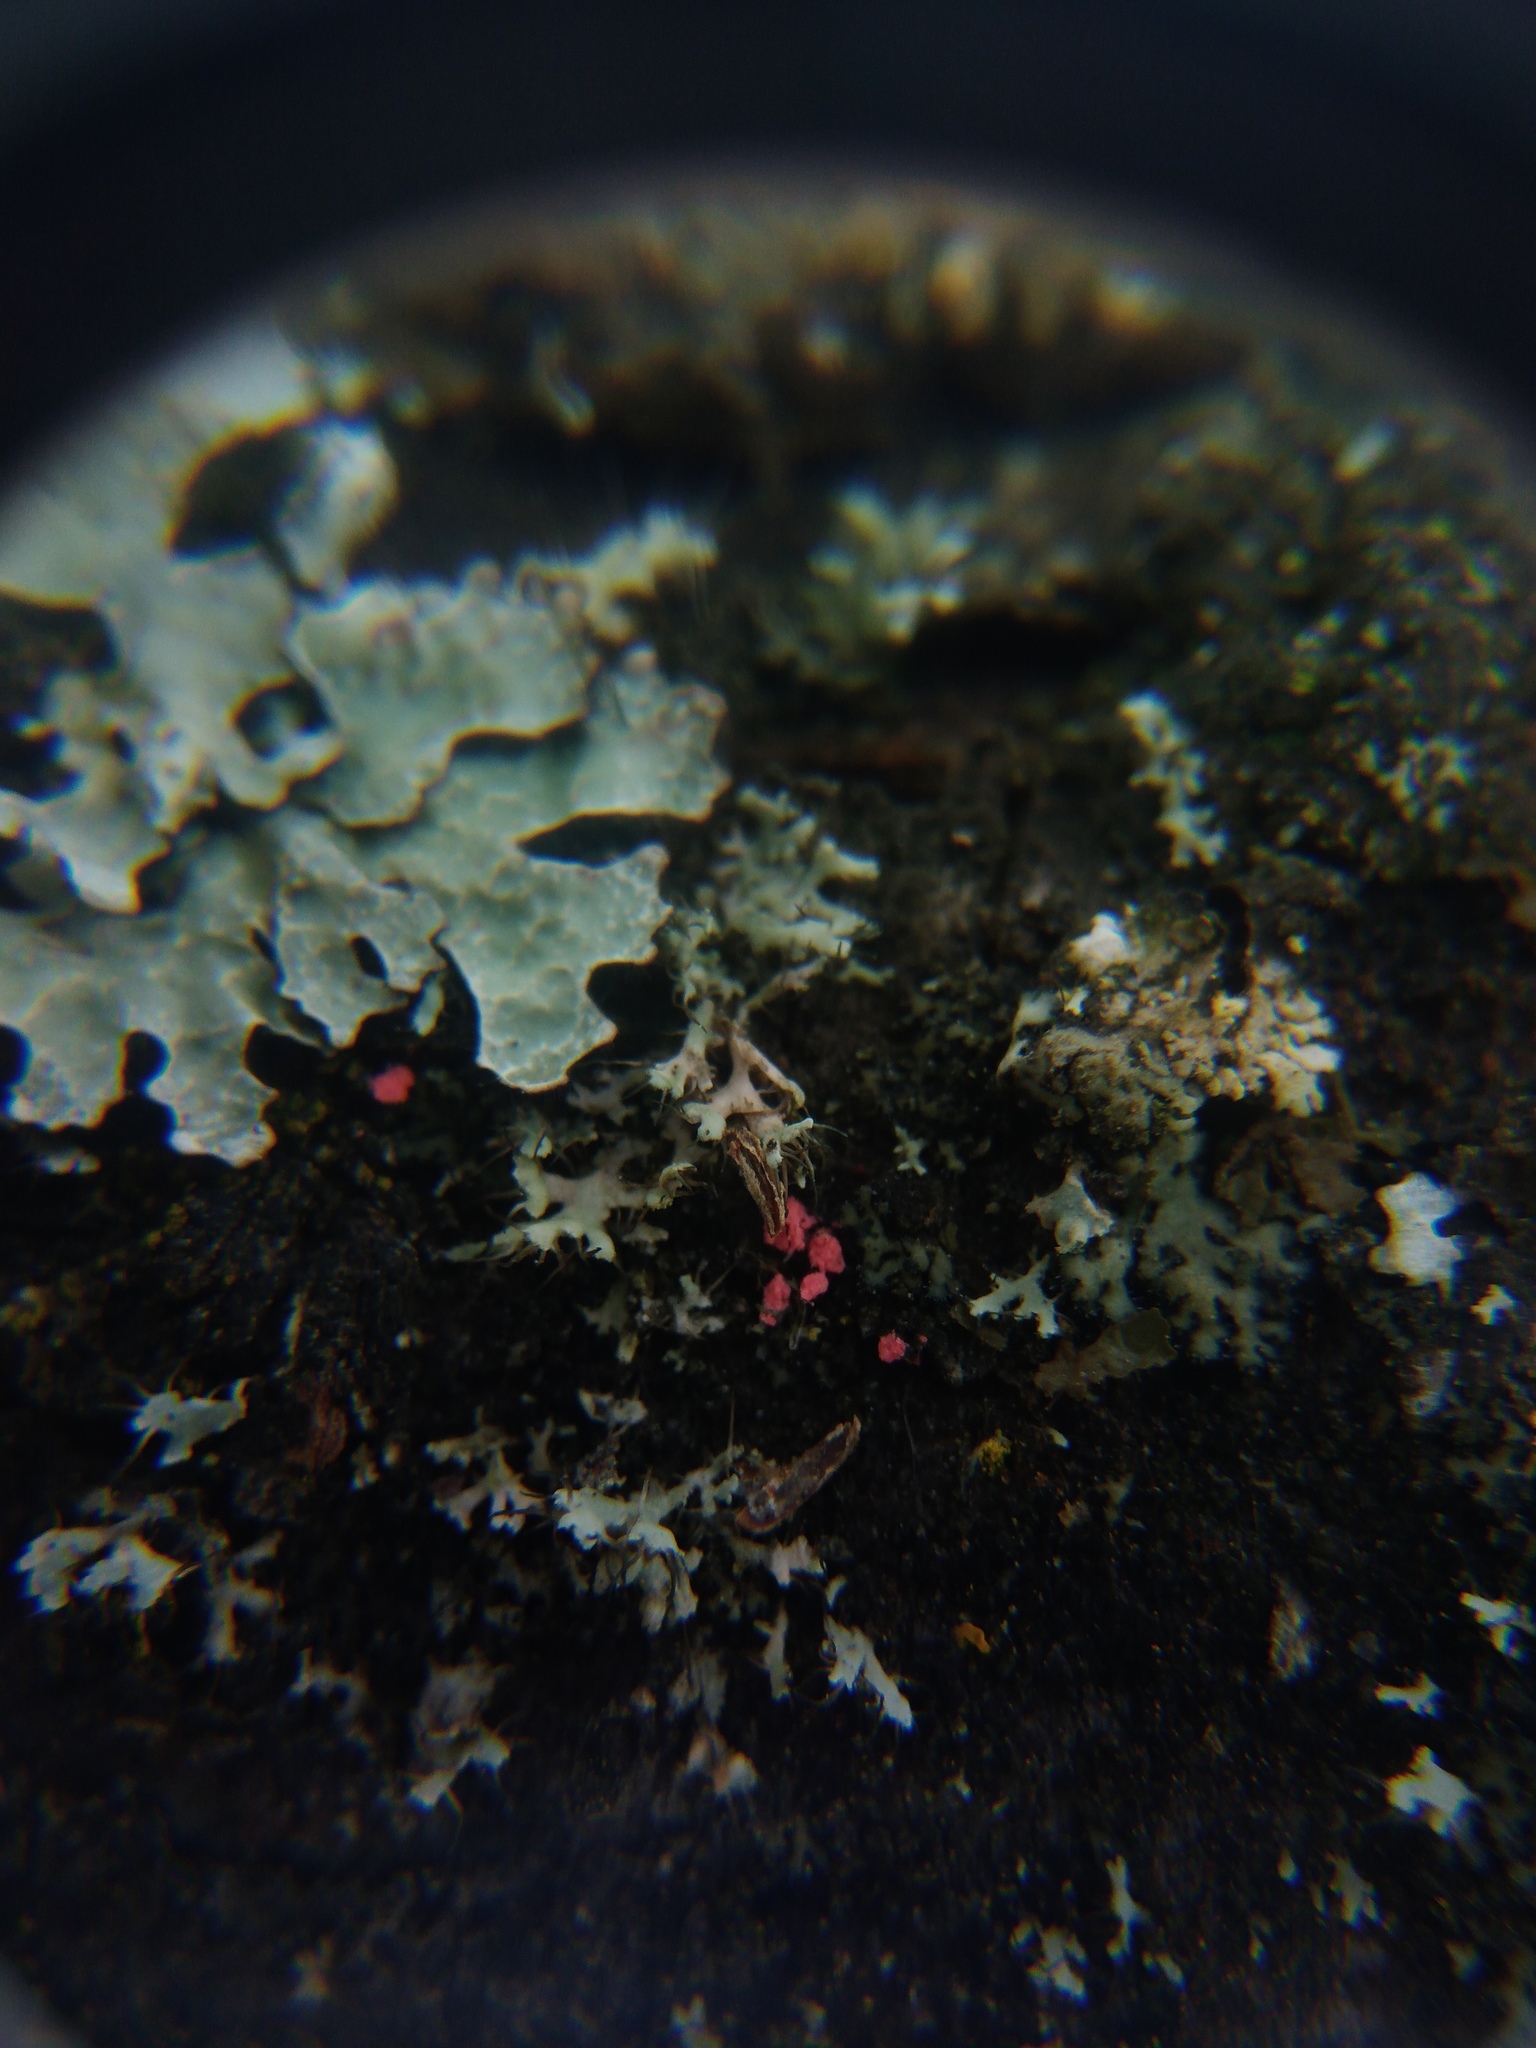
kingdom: Fungi
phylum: Ascomycota
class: Sordariomycetes
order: Hypocreales
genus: Illosporiopsis
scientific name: Illosporiopsis christiansenii
